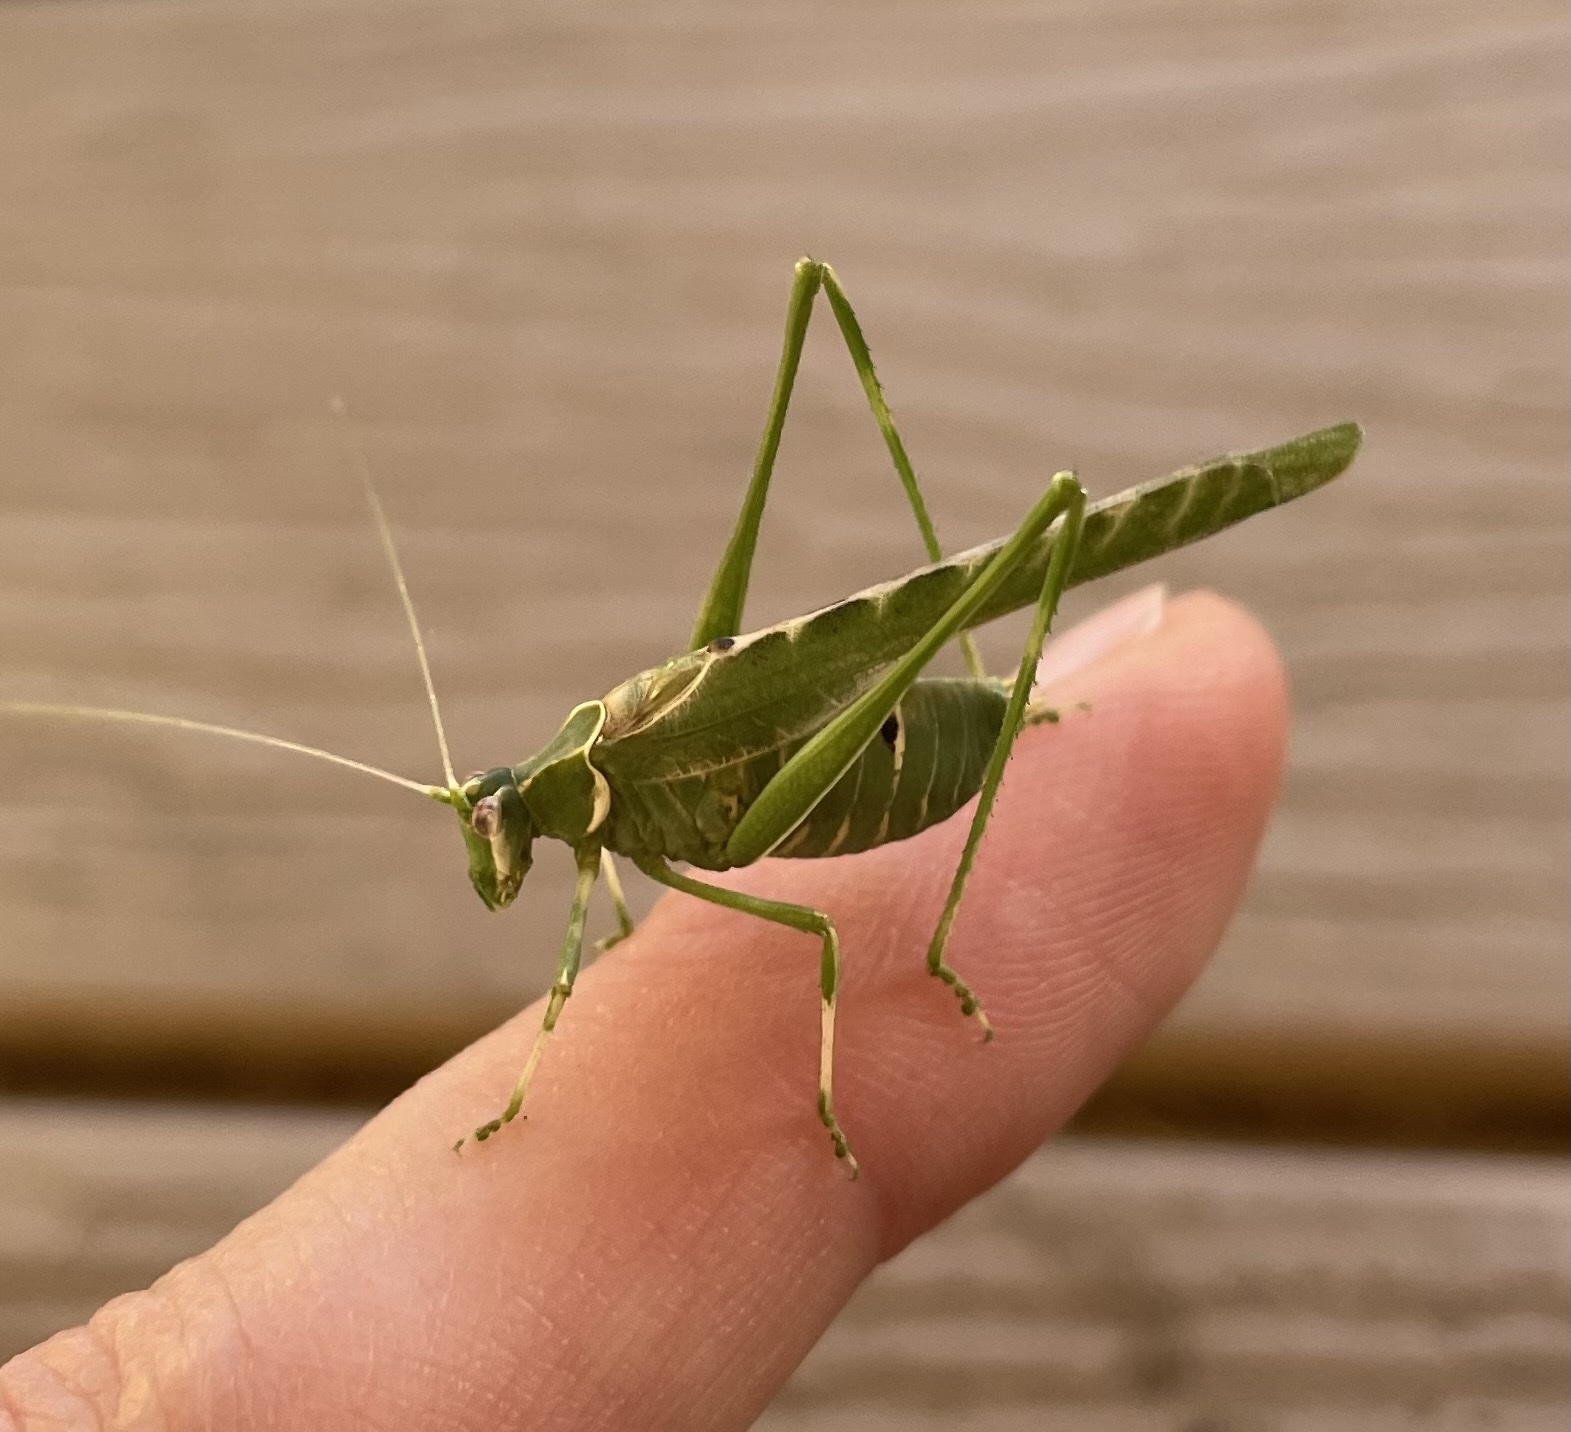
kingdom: Animalia
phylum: Arthropoda
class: Insecta
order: Orthoptera
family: Tettigoniidae
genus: Insara
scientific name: Insara elegans
